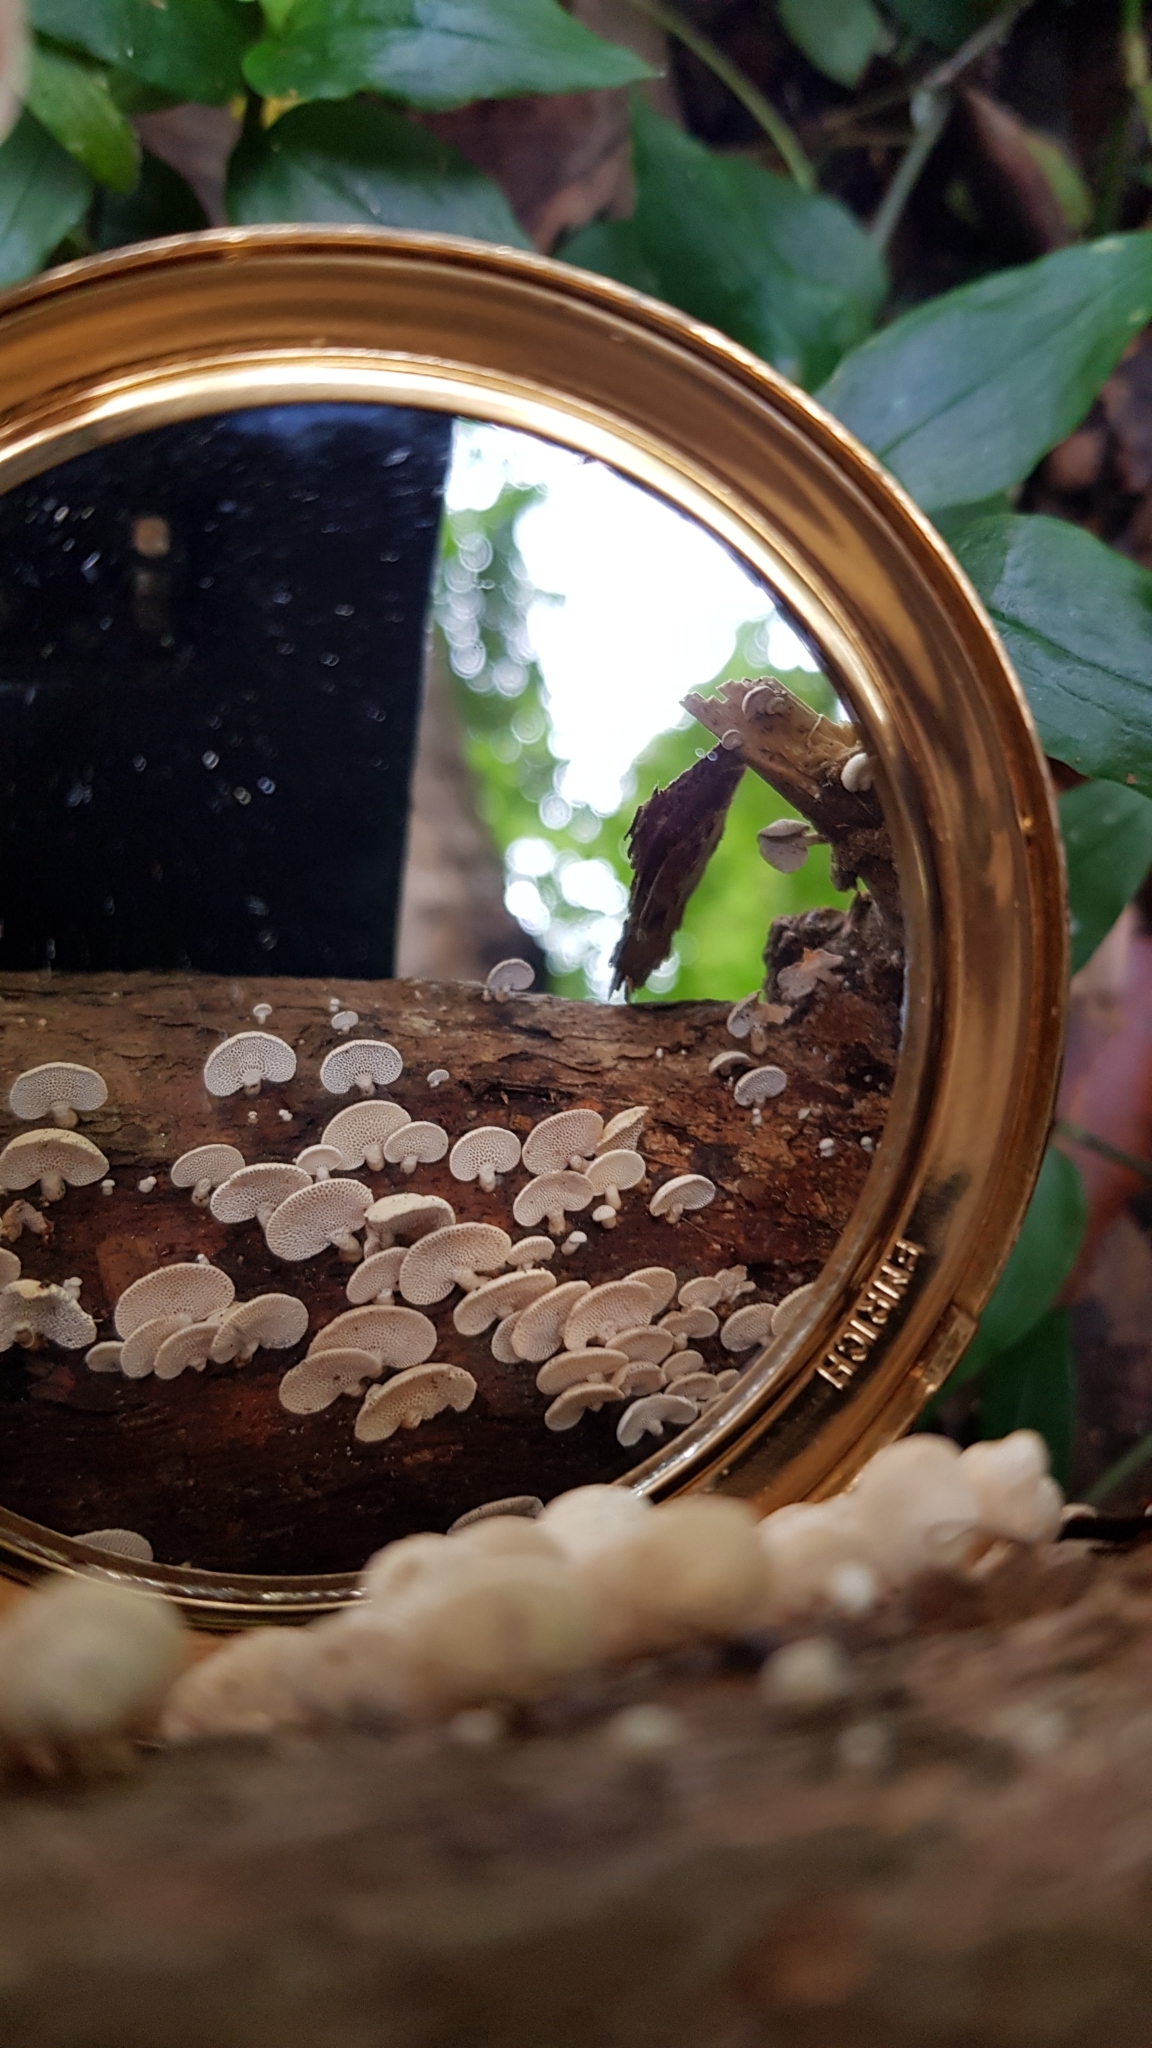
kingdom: Fungi
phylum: Basidiomycota
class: Agaricomycetes
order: Agaricales
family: Mycenaceae
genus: Panellus
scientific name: Panellus luxfilamentus
